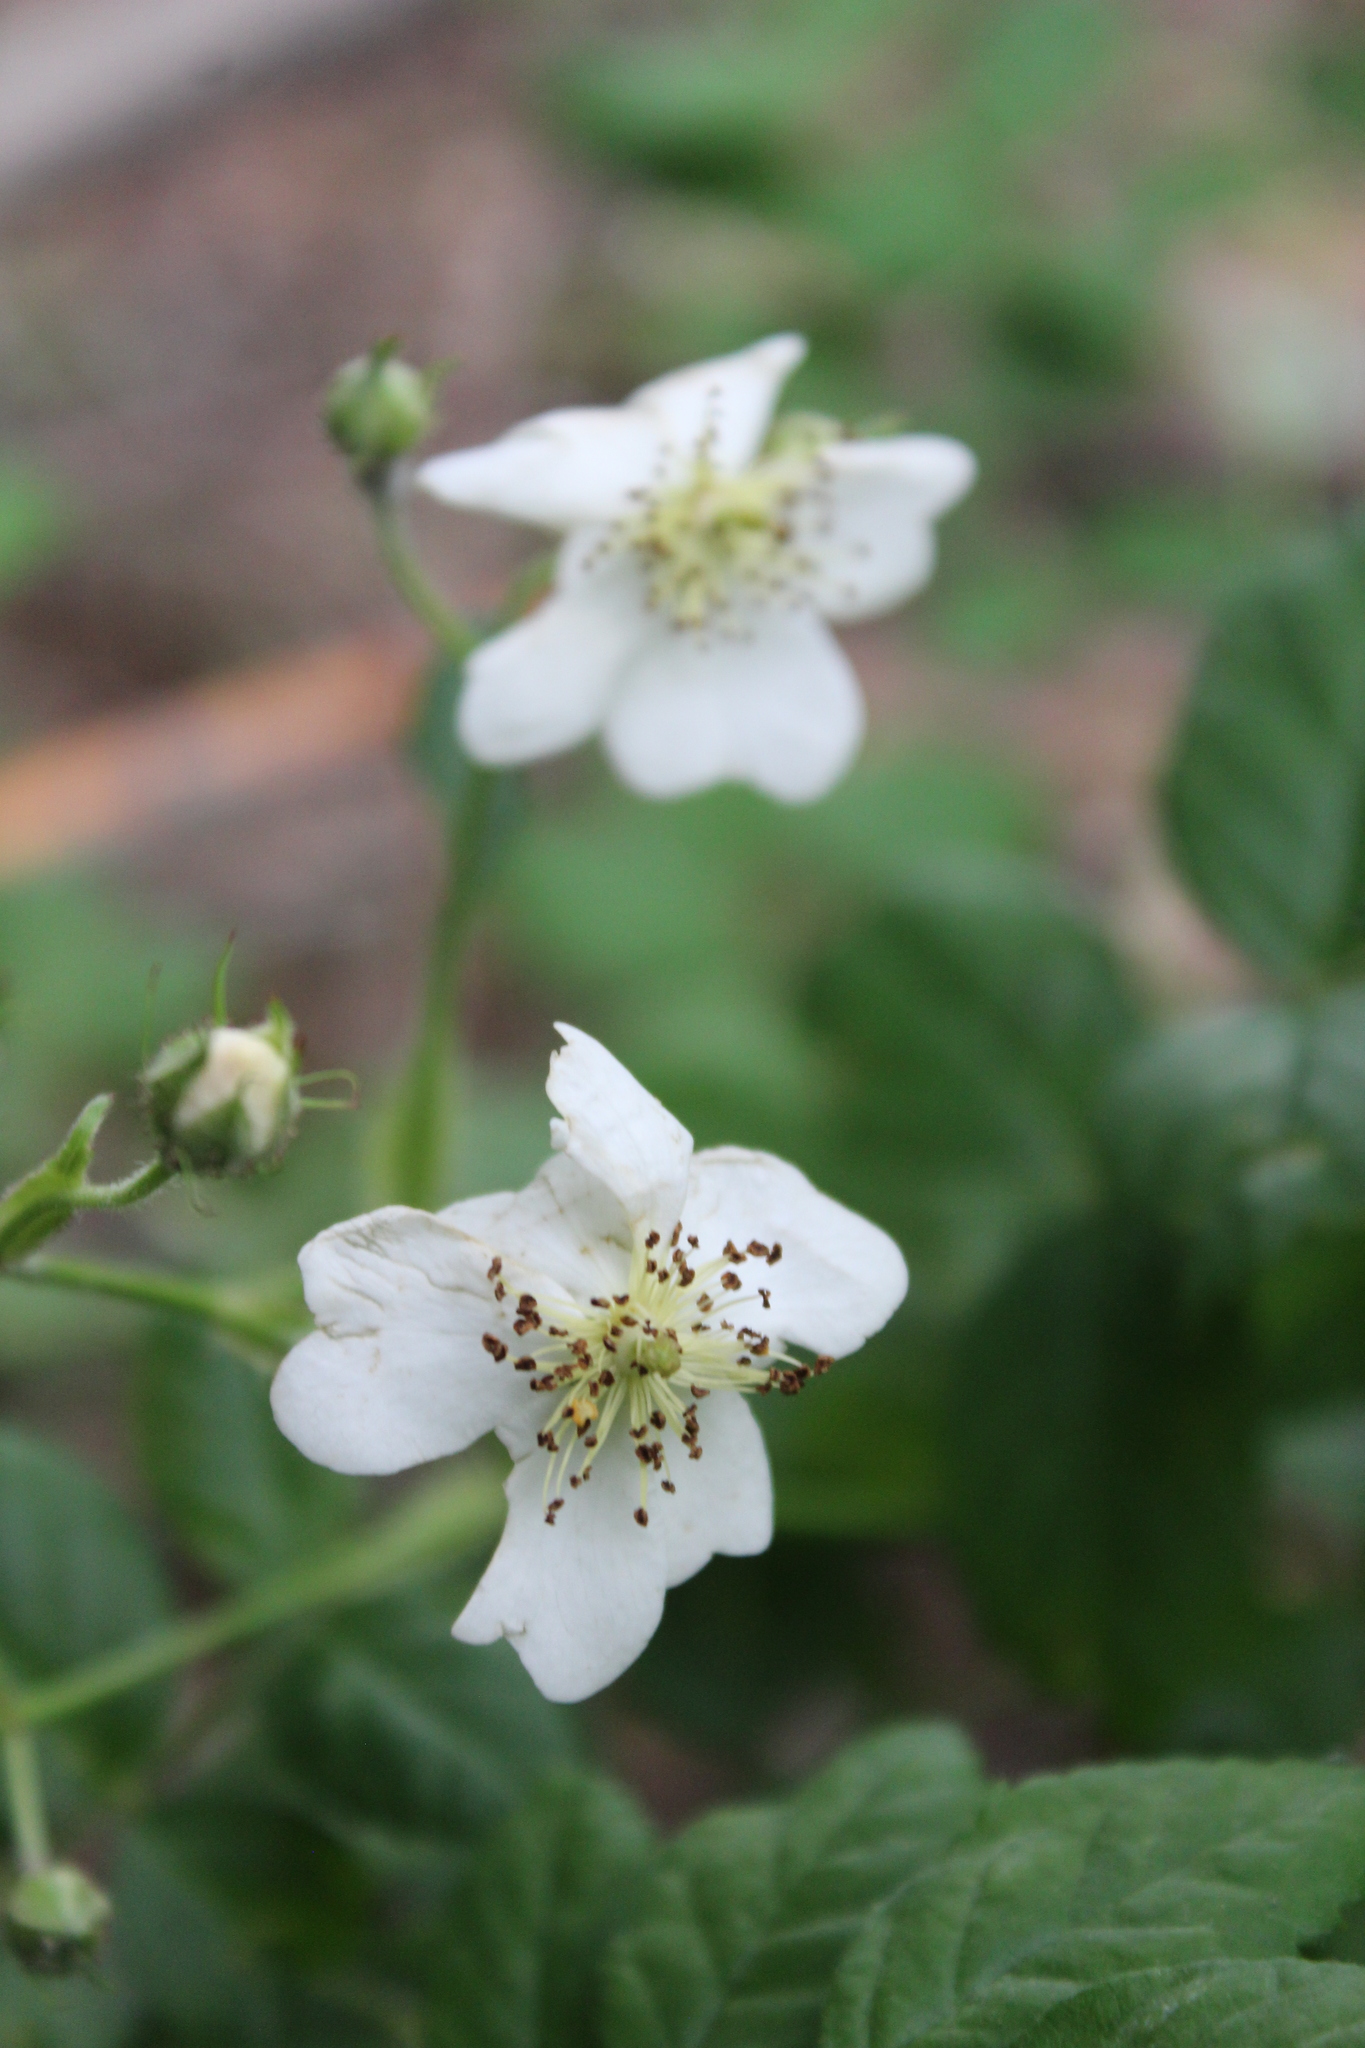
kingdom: Plantae
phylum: Tracheophyta
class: Magnoliopsida
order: Rosales
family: Rosaceae
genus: Rosa
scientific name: Rosa multiflora
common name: Multiflora rose
